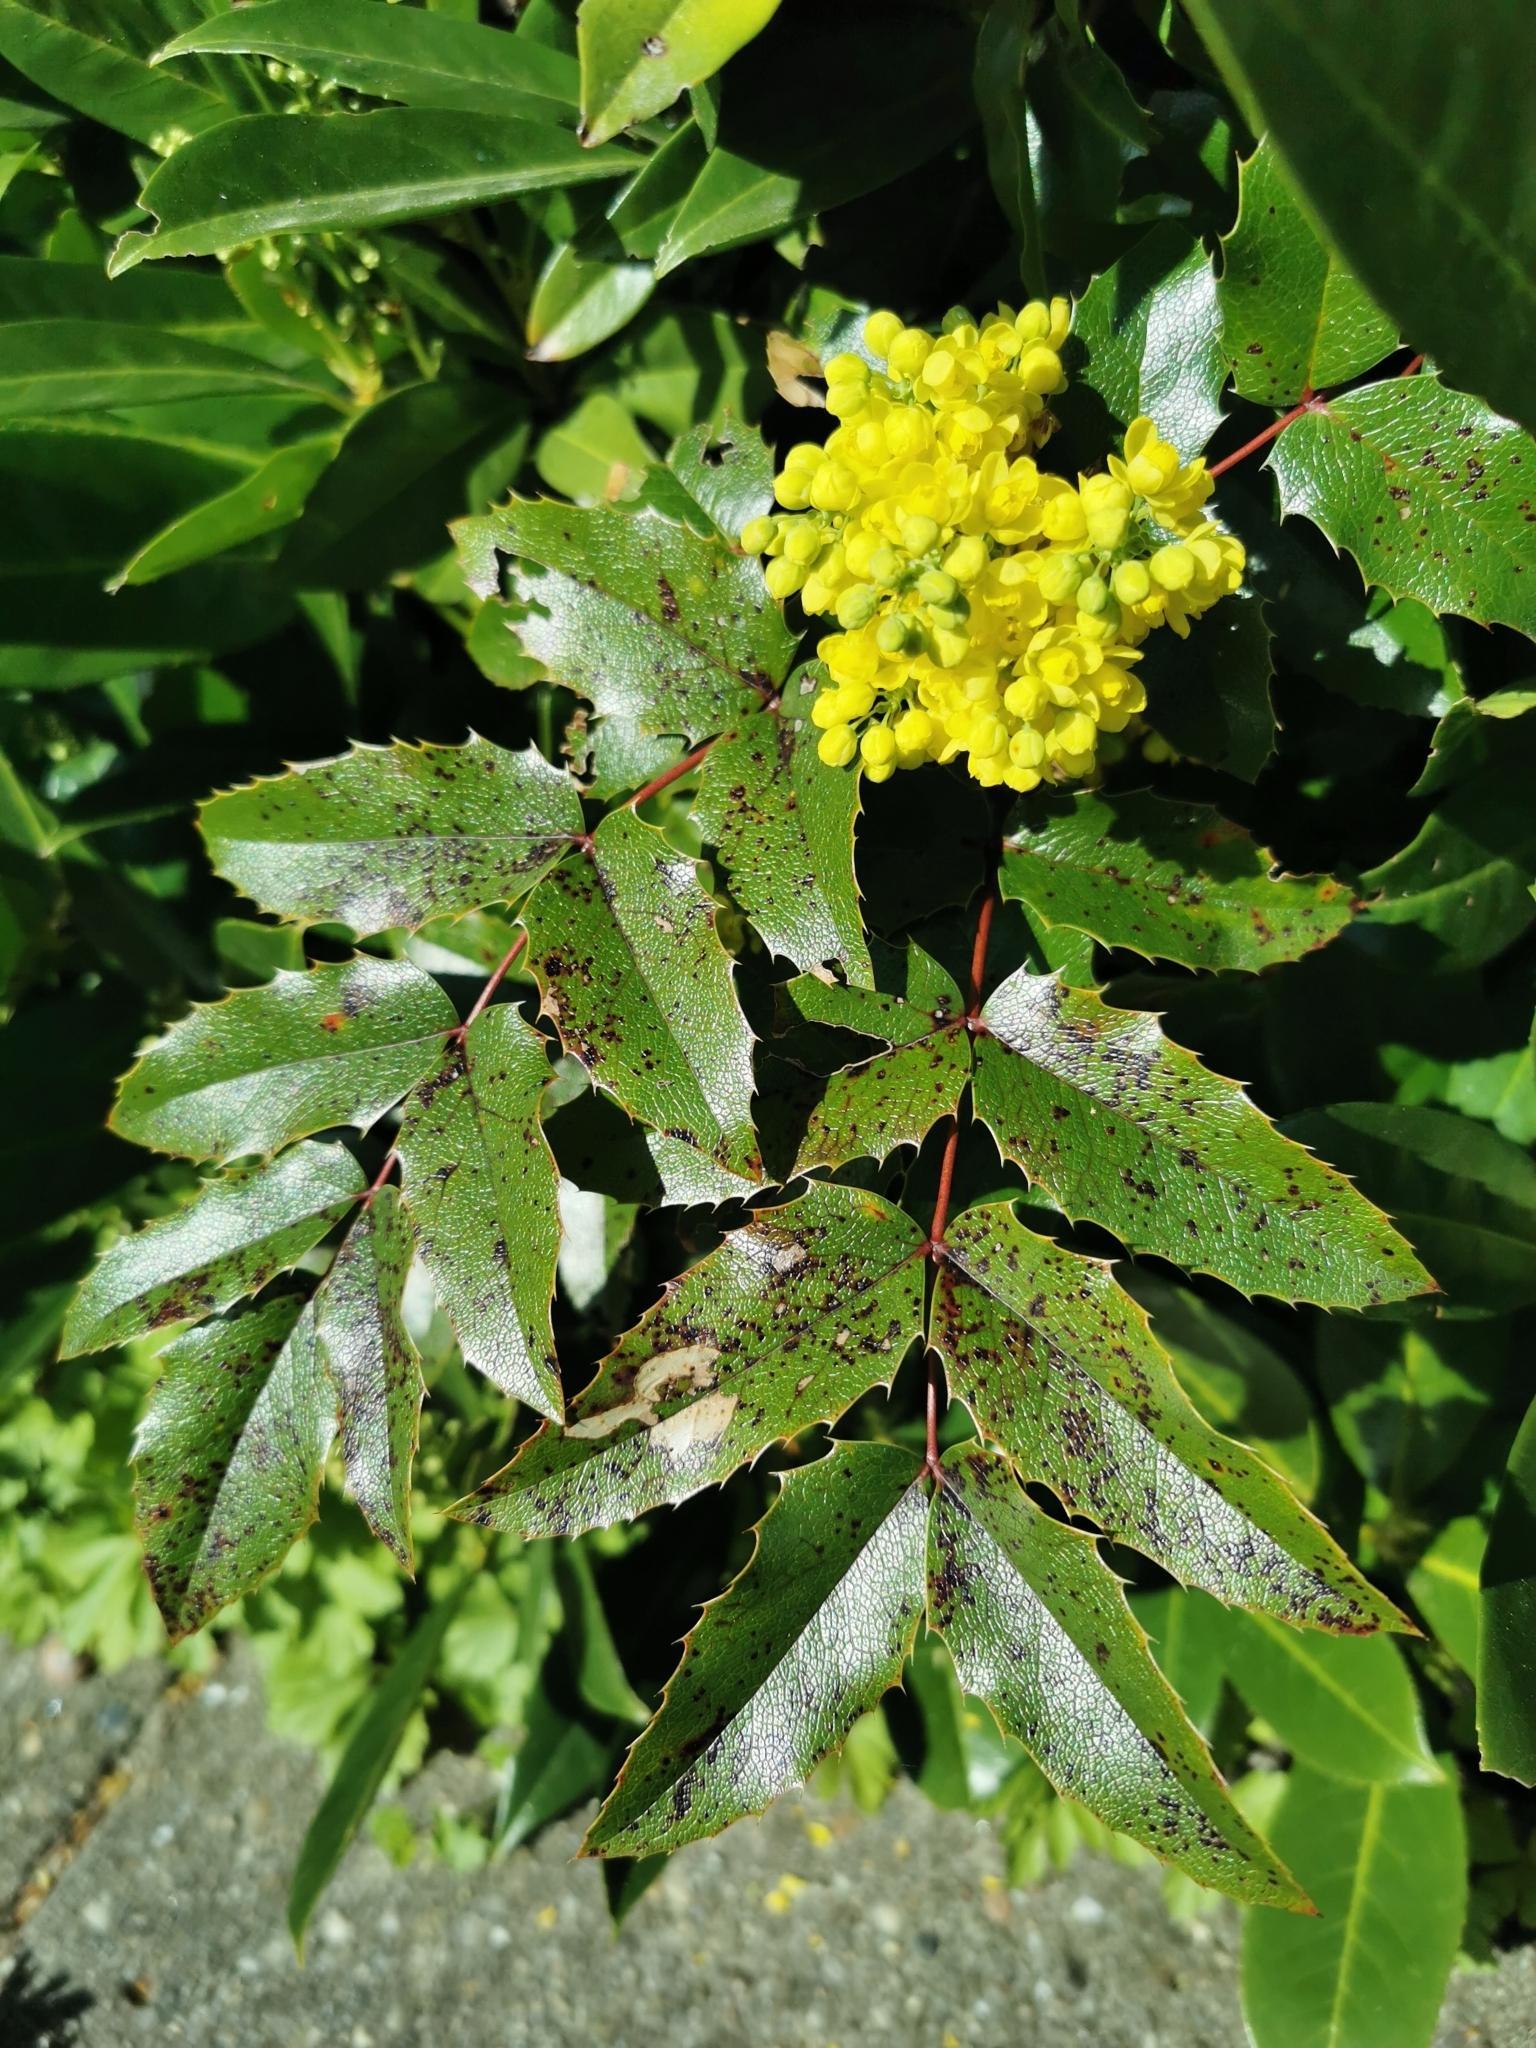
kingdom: Plantae
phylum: Tracheophyta
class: Magnoliopsida
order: Ranunculales
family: Berberidaceae
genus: Mahonia
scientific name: Mahonia aquifolium
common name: Oregon-grape
